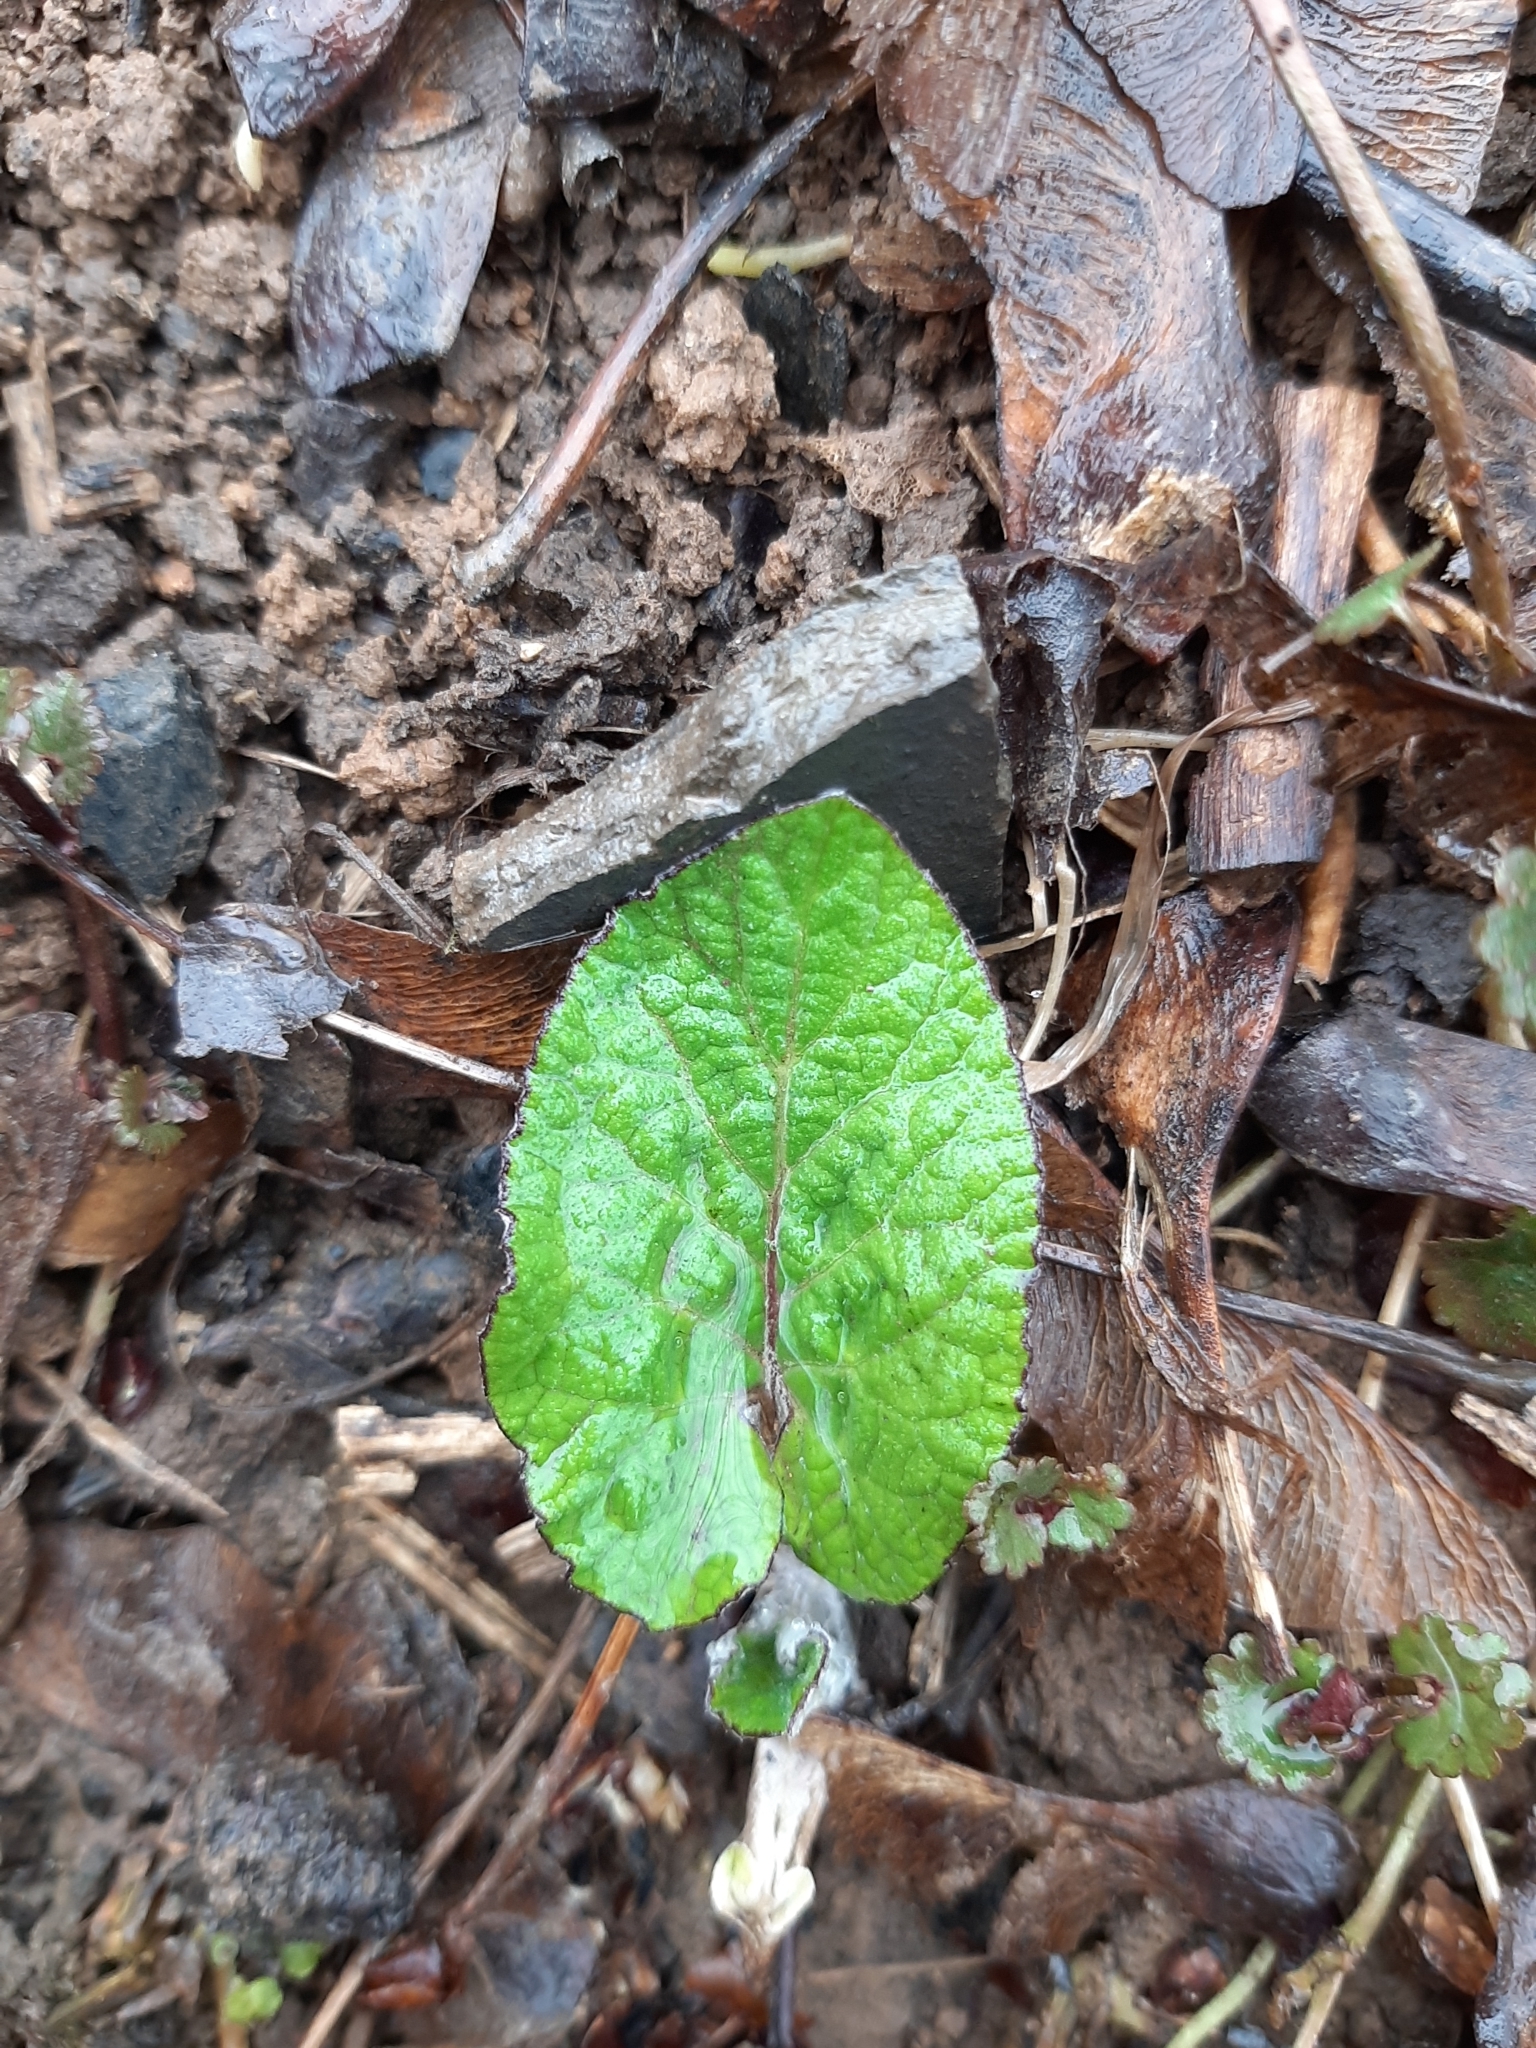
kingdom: Plantae
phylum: Tracheophyta
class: Magnoliopsida
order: Asterales
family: Asteraceae
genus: Arctium
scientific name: Arctium
